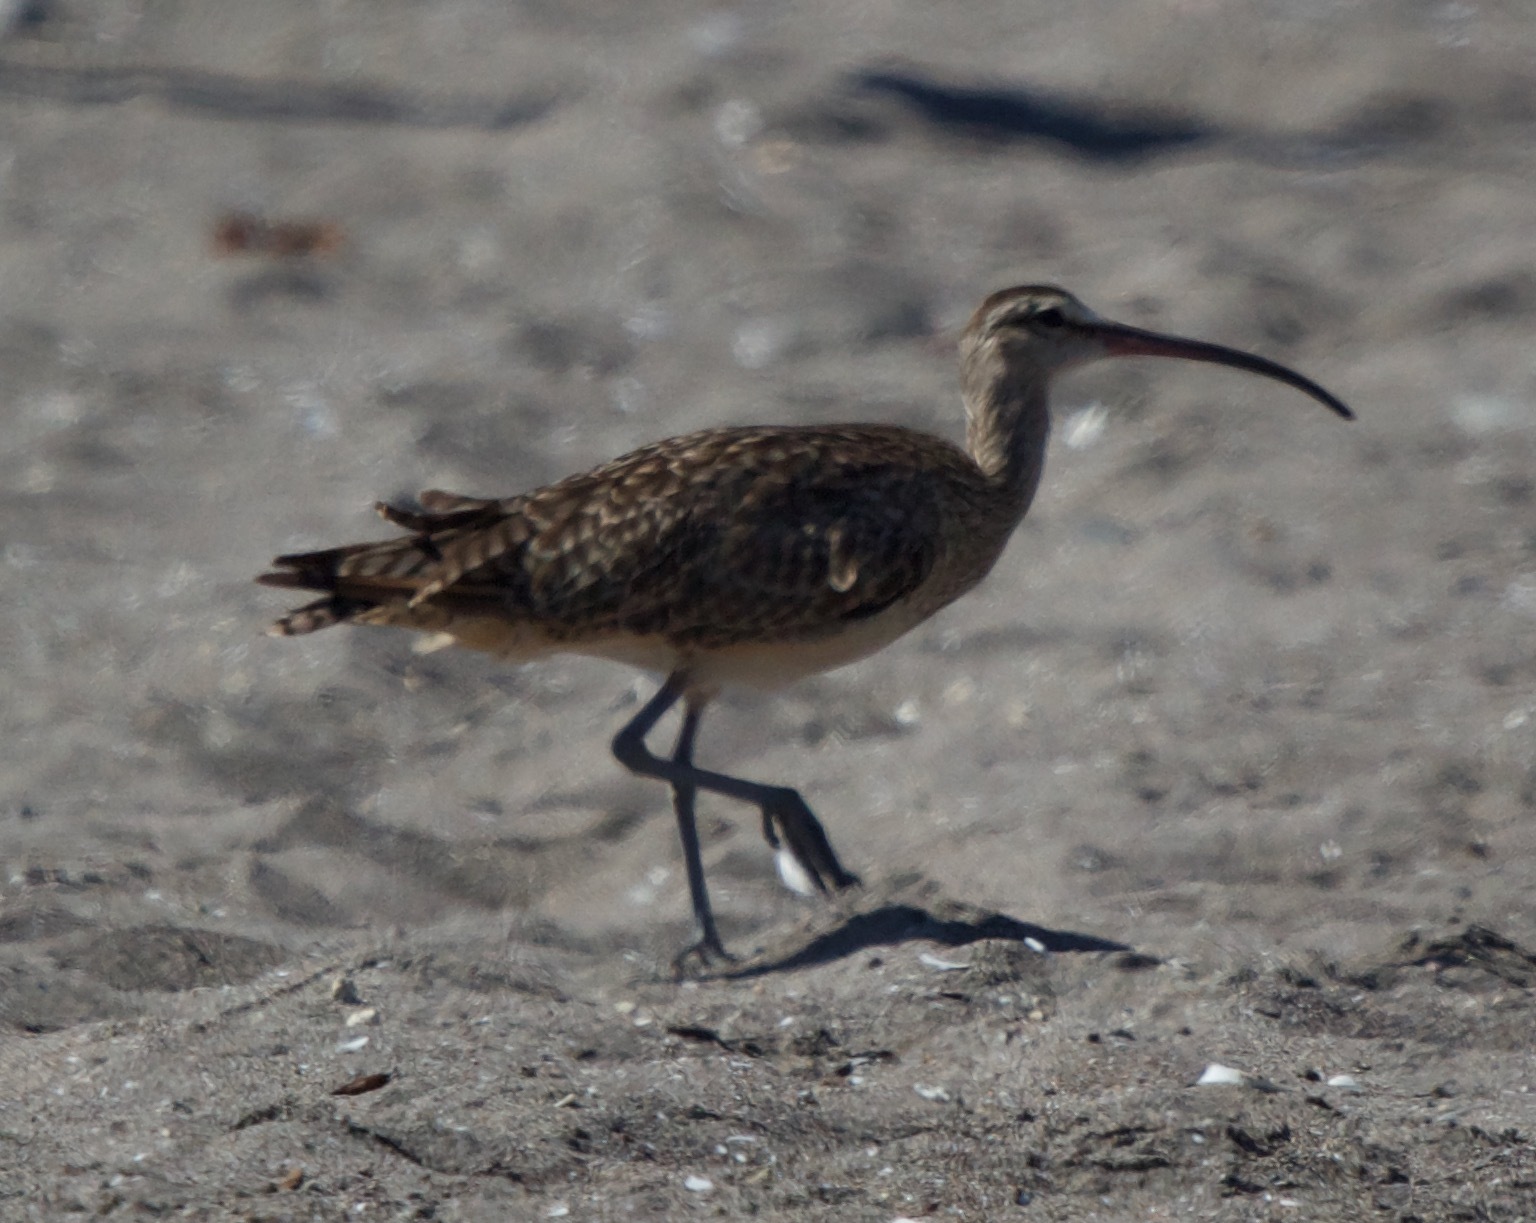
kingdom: Animalia
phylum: Chordata
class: Aves
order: Charadriiformes
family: Scolopacidae
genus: Numenius
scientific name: Numenius phaeopus
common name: Whimbrel
